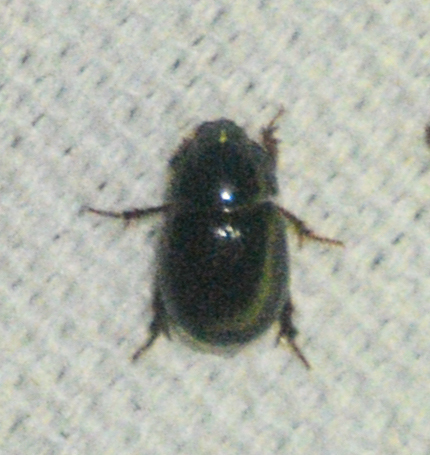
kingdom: Animalia
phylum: Arthropoda
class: Insecta
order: Coleoptera
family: Hybosoridae
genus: Hybosorus
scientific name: Hybosorus illigeri
